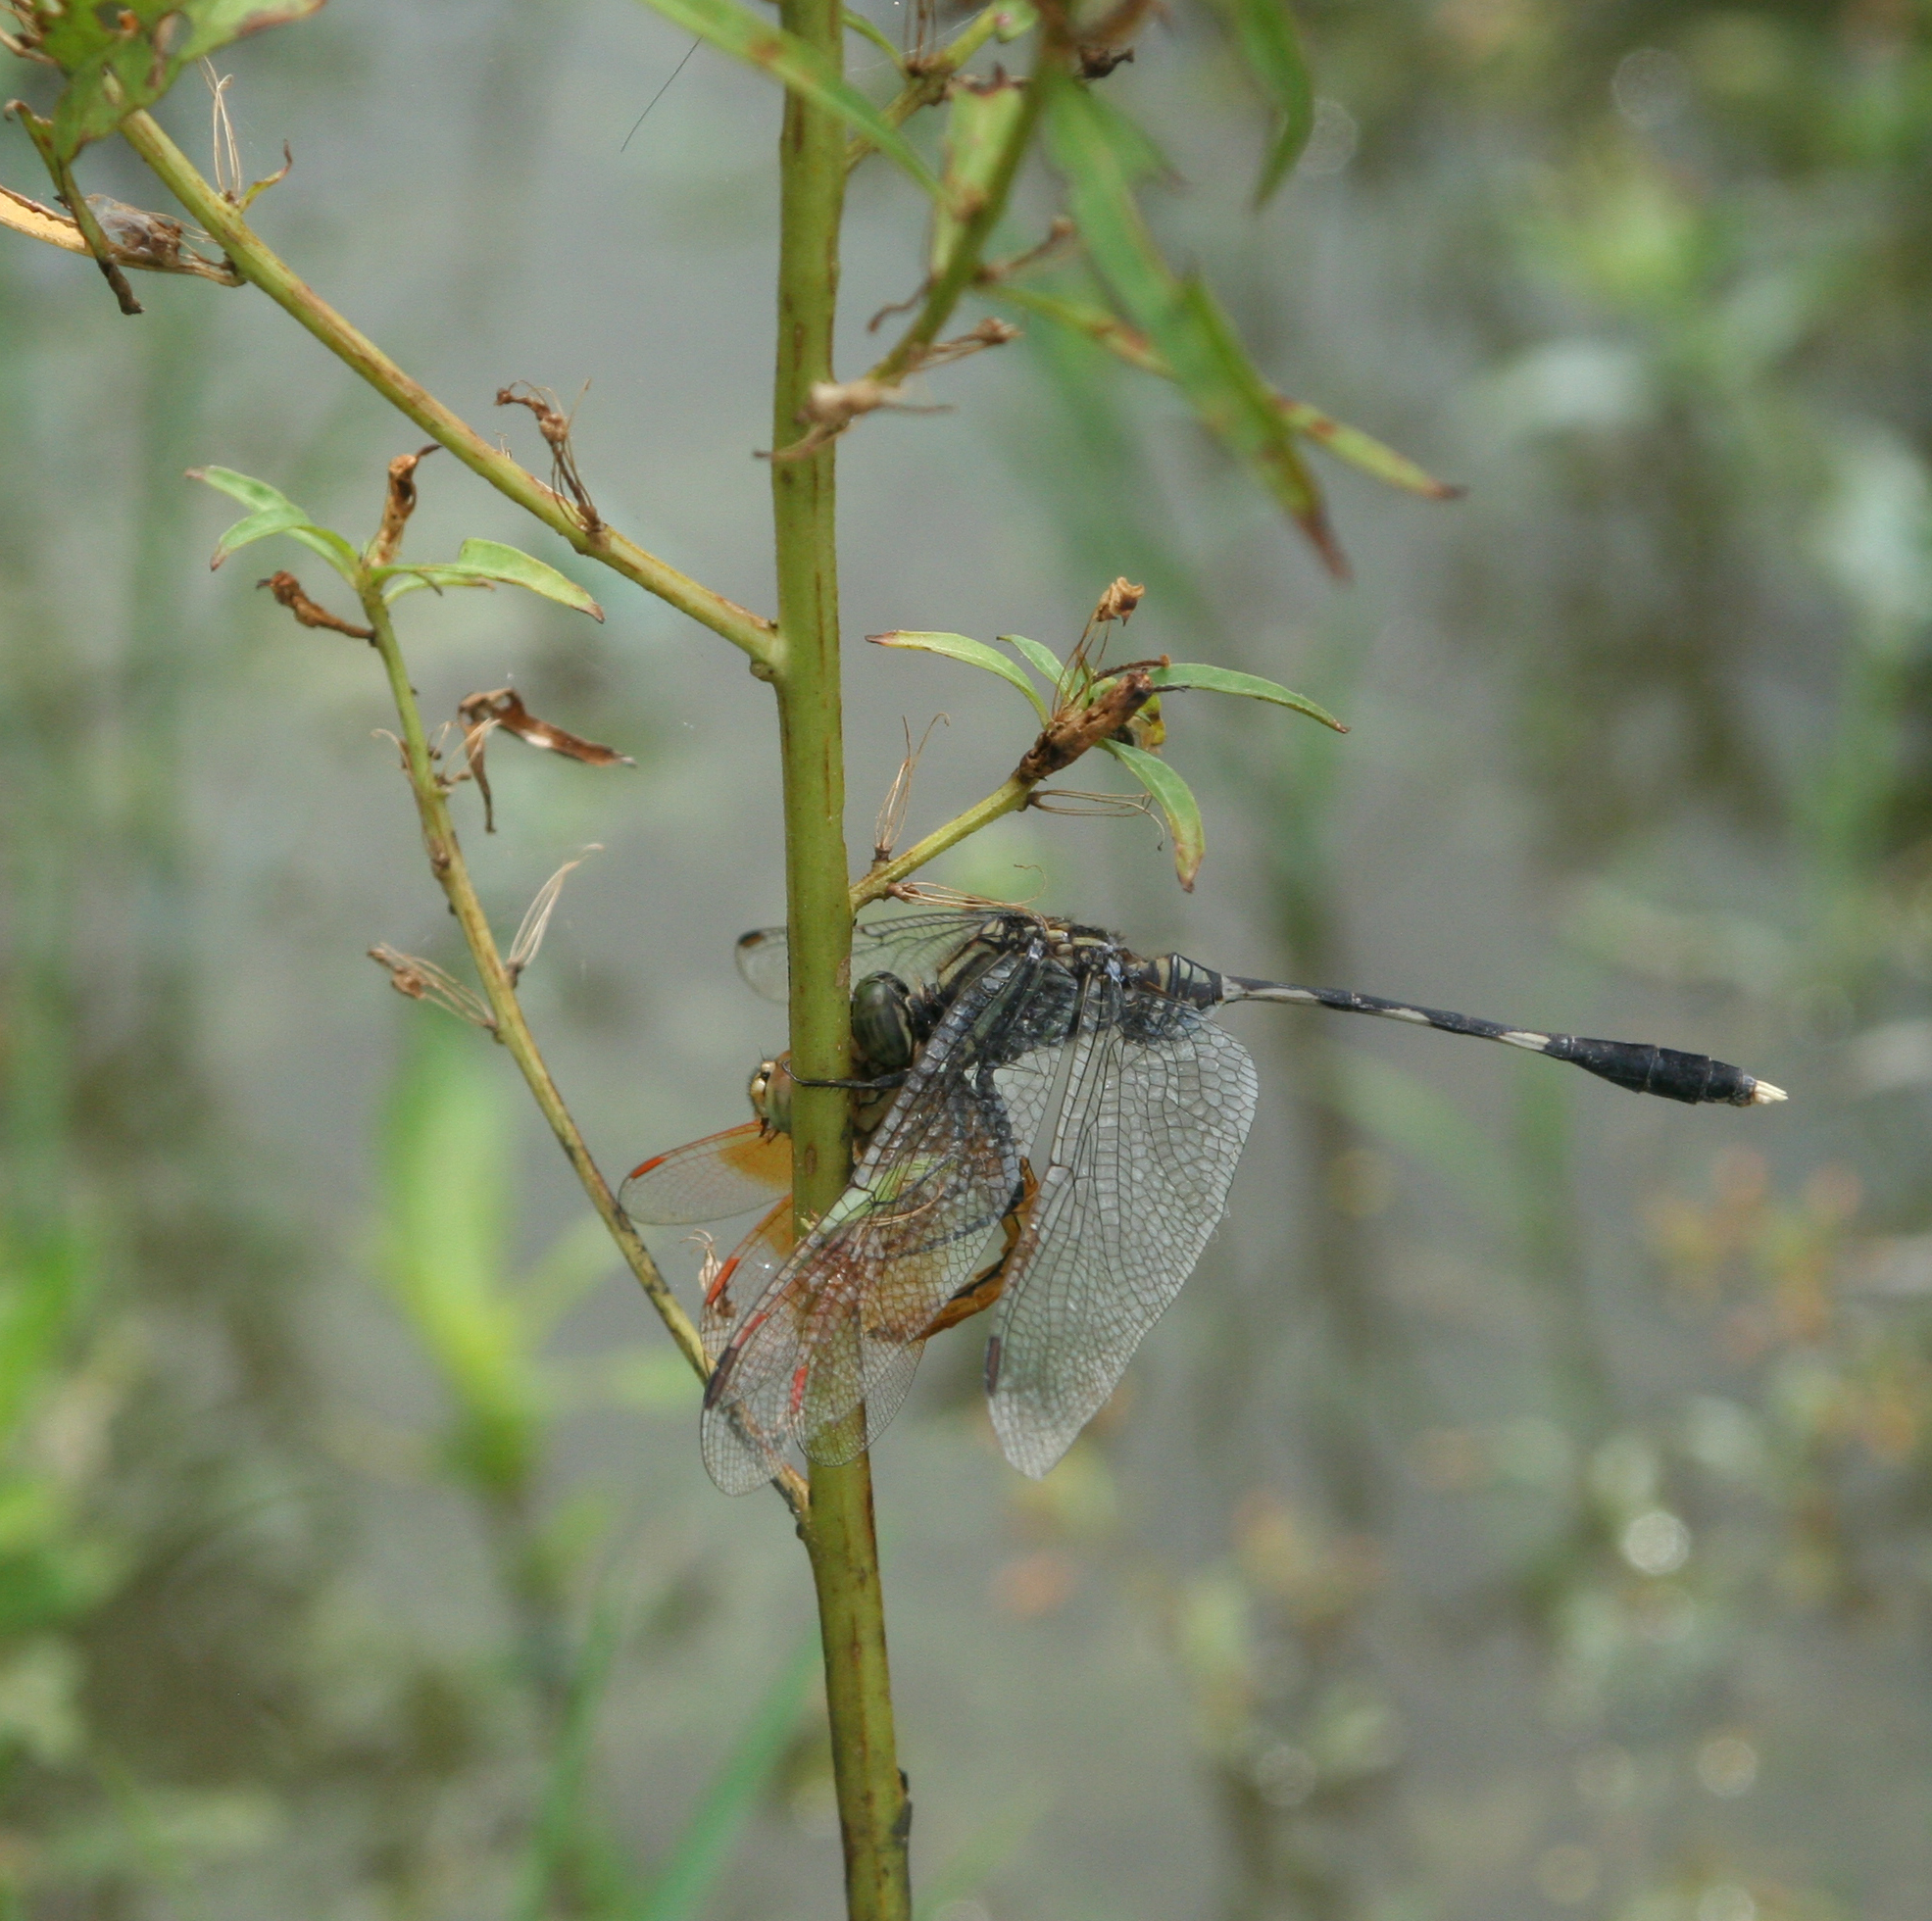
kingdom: Animalia
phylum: Arthropoda
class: Insecta
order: Odonata
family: Libellulidae
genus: Orthetrum
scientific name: Orthetrum sabina
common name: Slender skimmer
